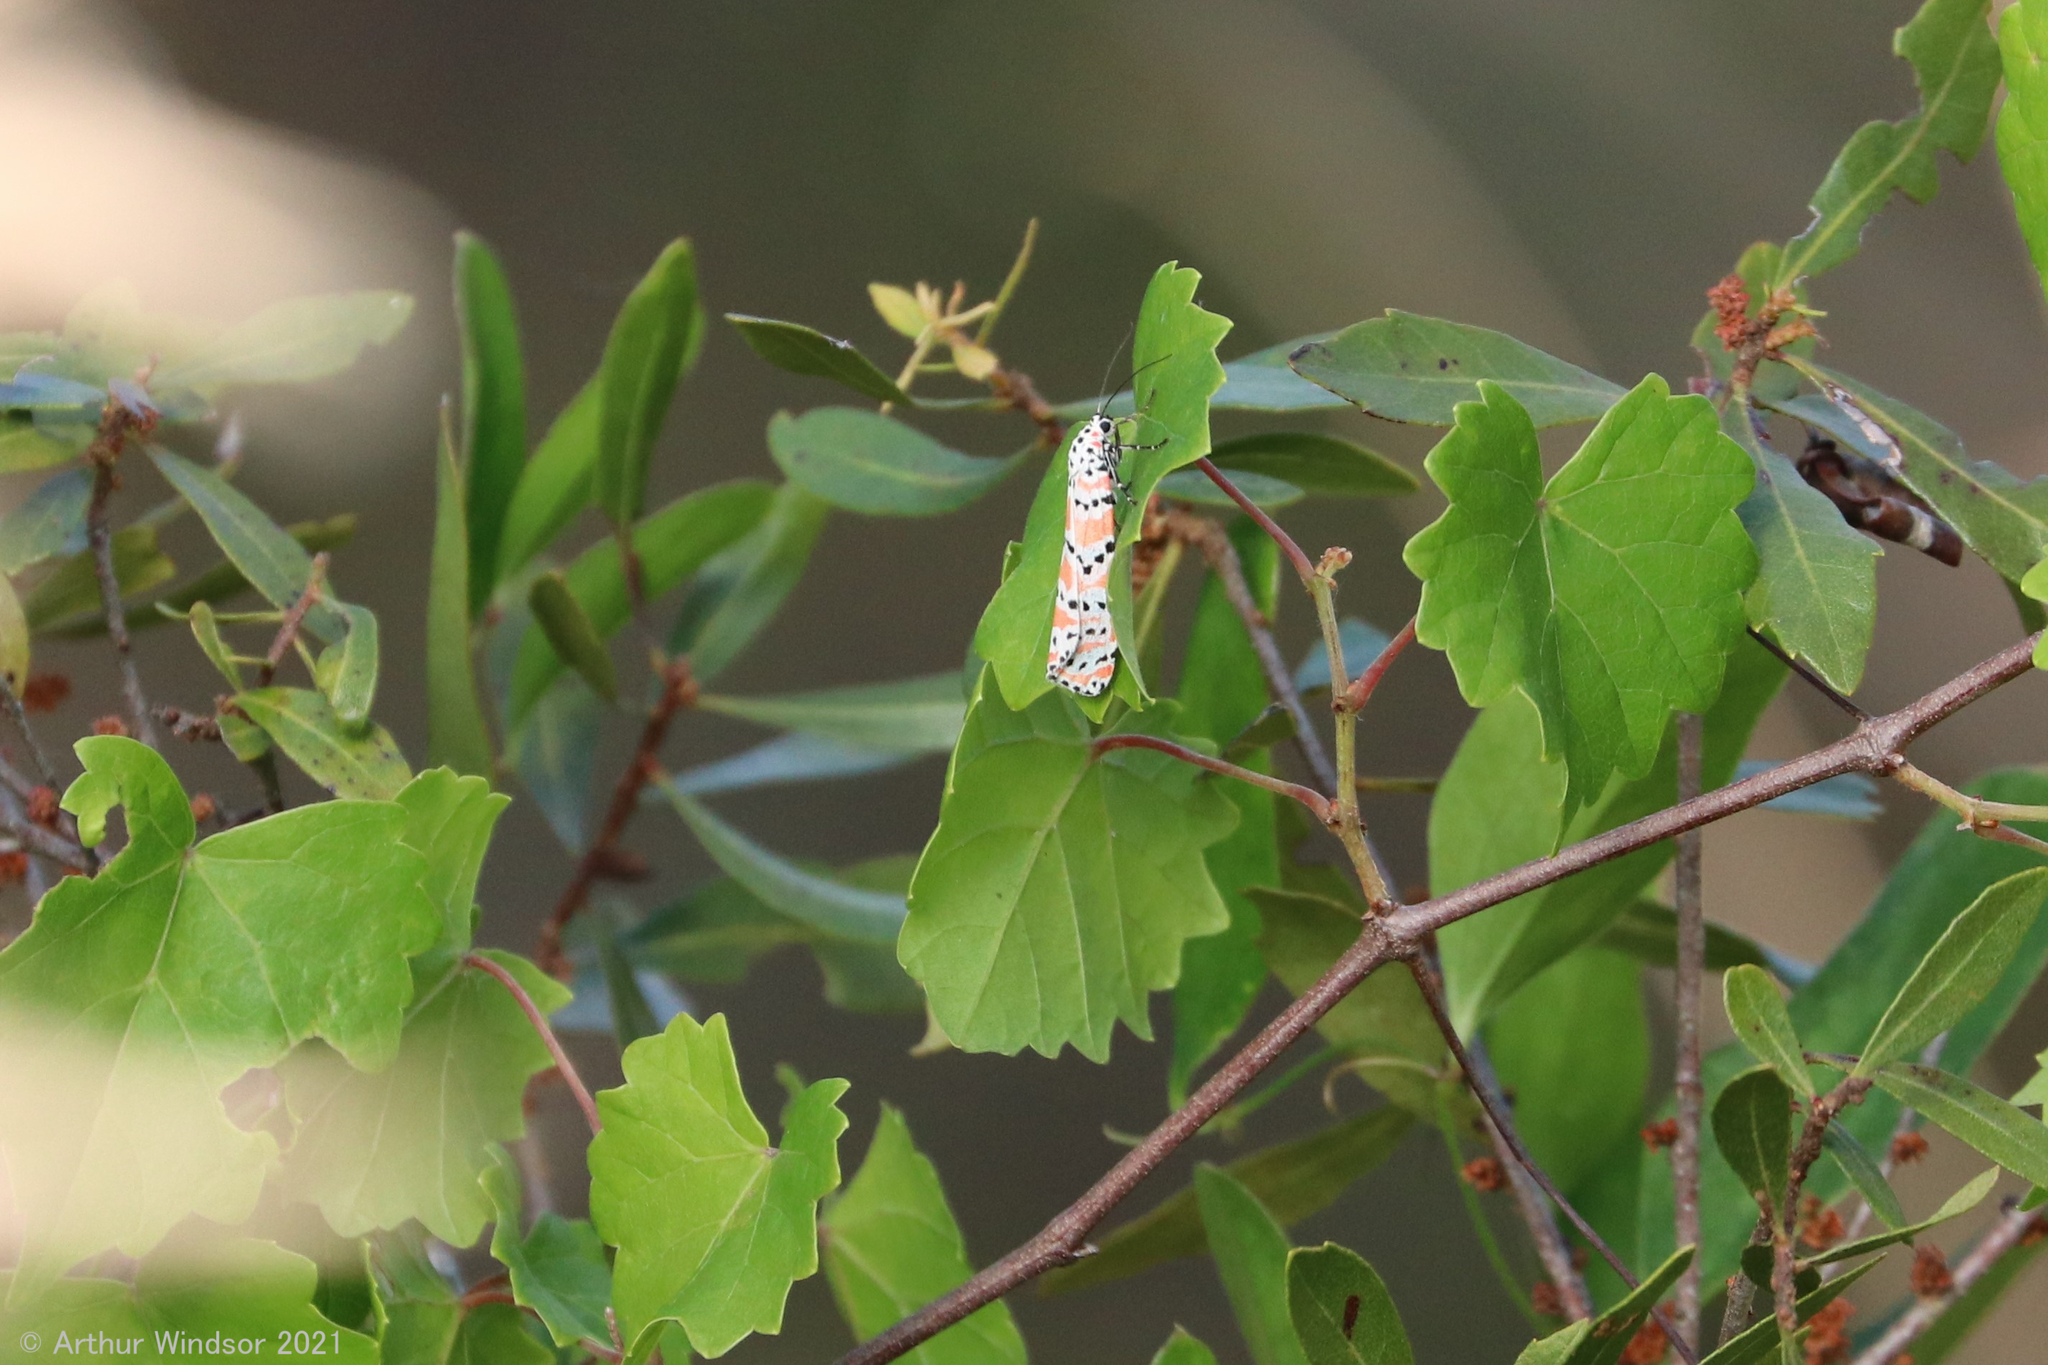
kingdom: Animalia
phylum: Arthropoda
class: Insecta
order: Lepidoptera
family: Erebidae
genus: Utetheisa
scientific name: Utetheisa ornatrix
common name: Beautiful utetheisa
